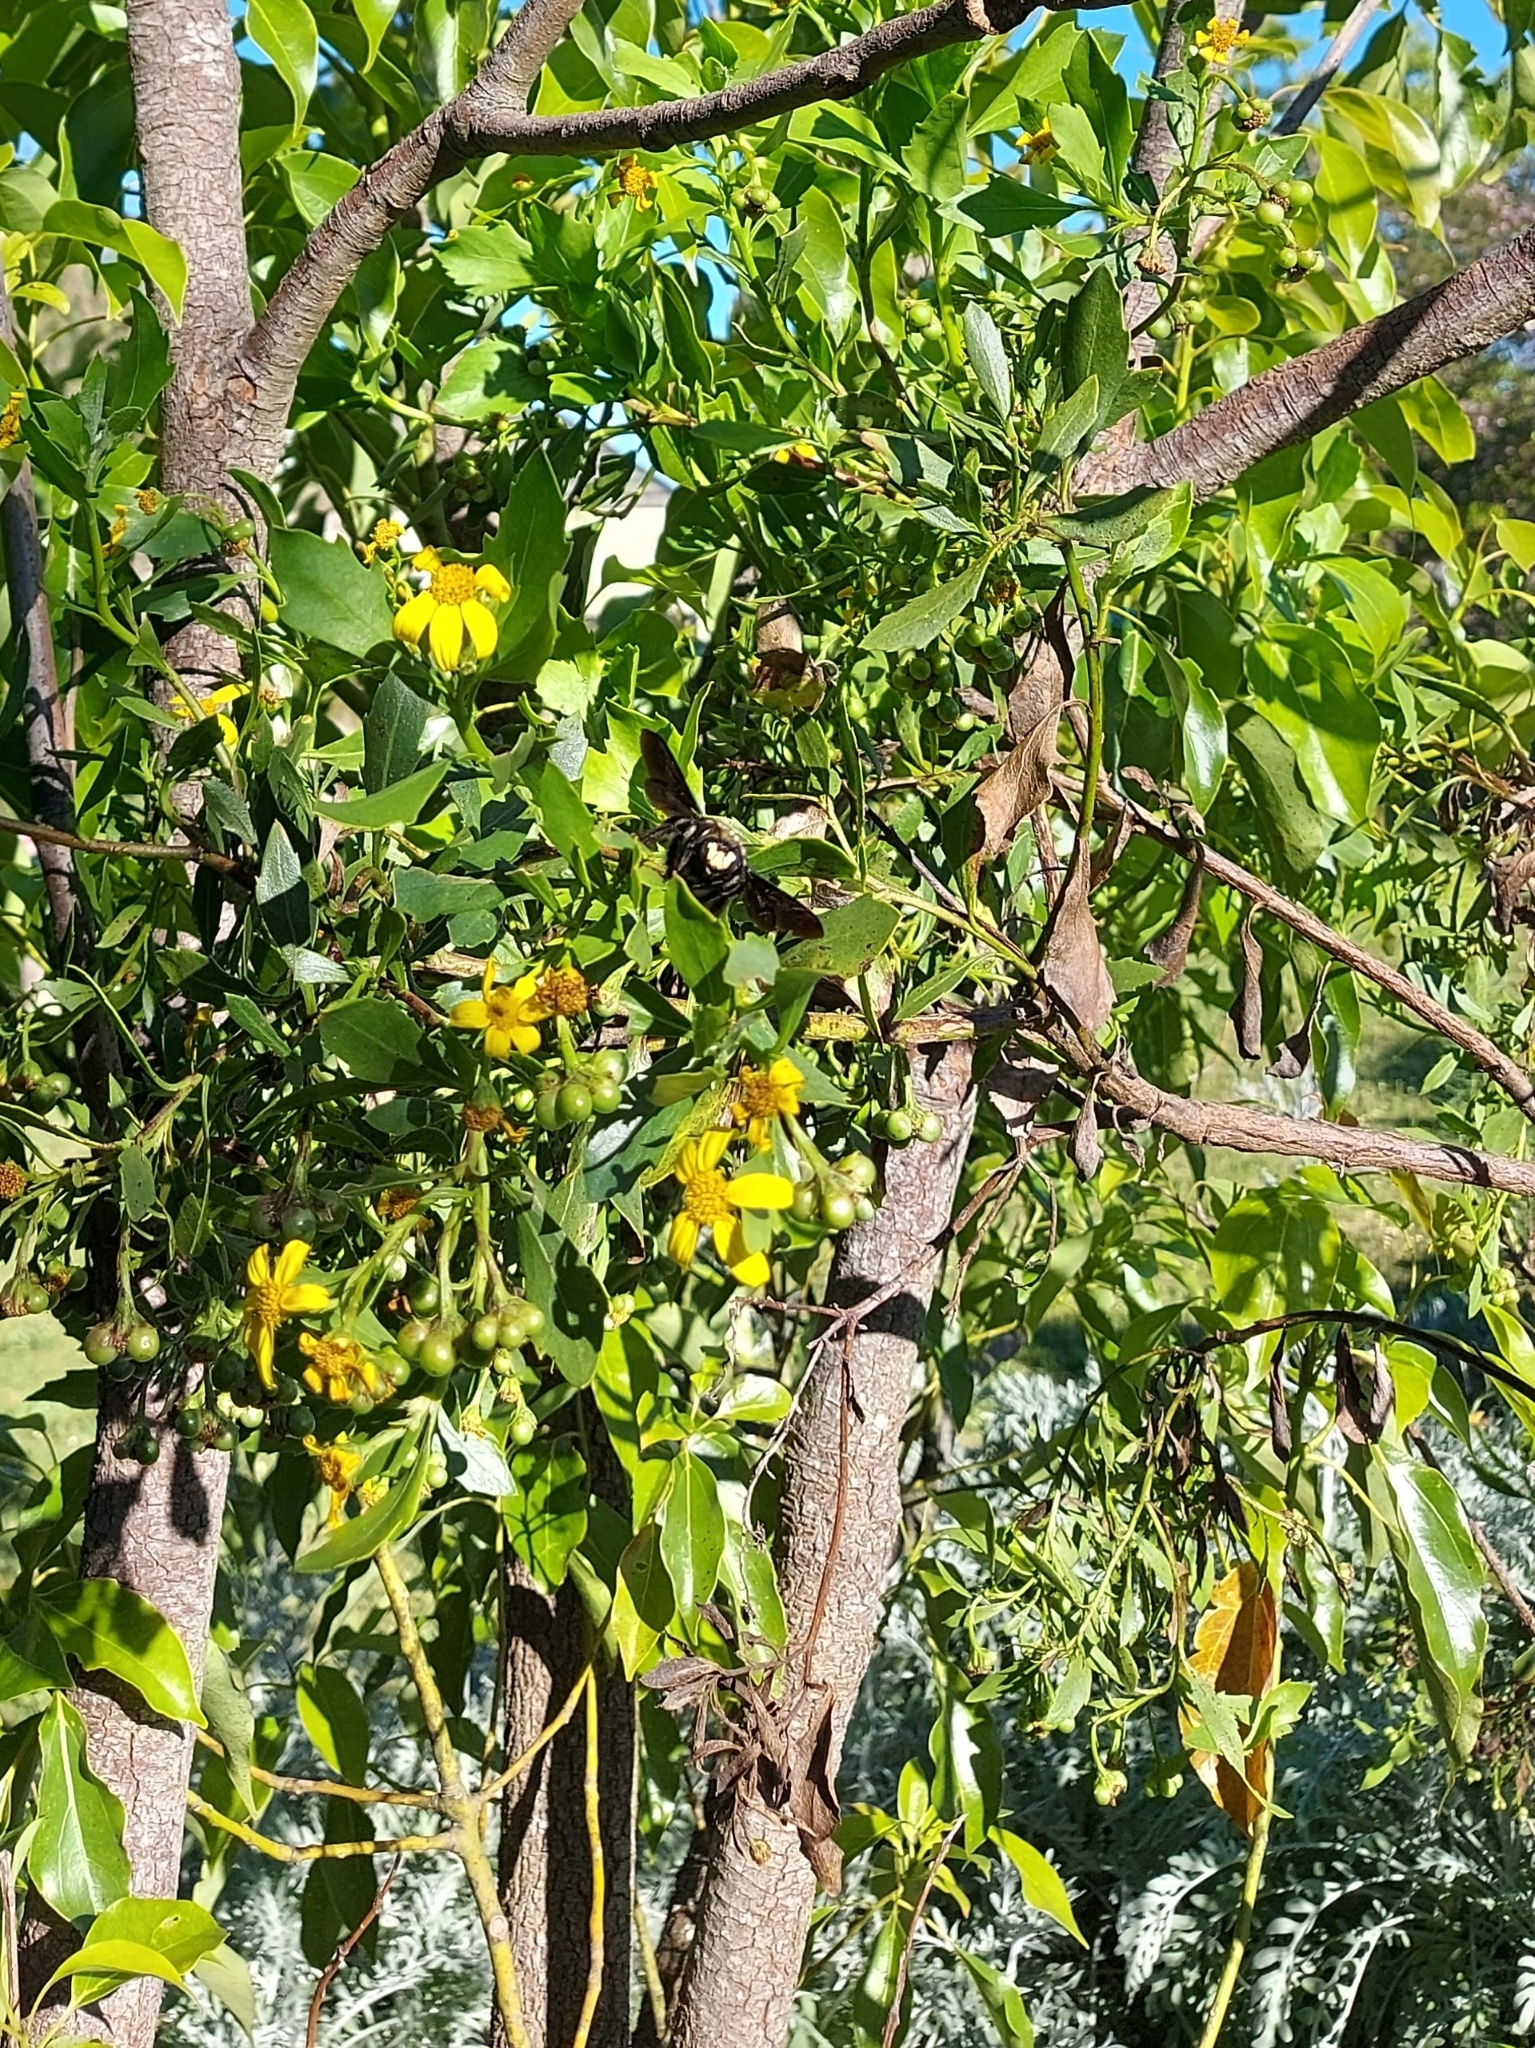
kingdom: Animalia
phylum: Arthropoda
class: Insecta
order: Hymenoptera
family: Apidae
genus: Xylocopa
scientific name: Xylocopa capitata
